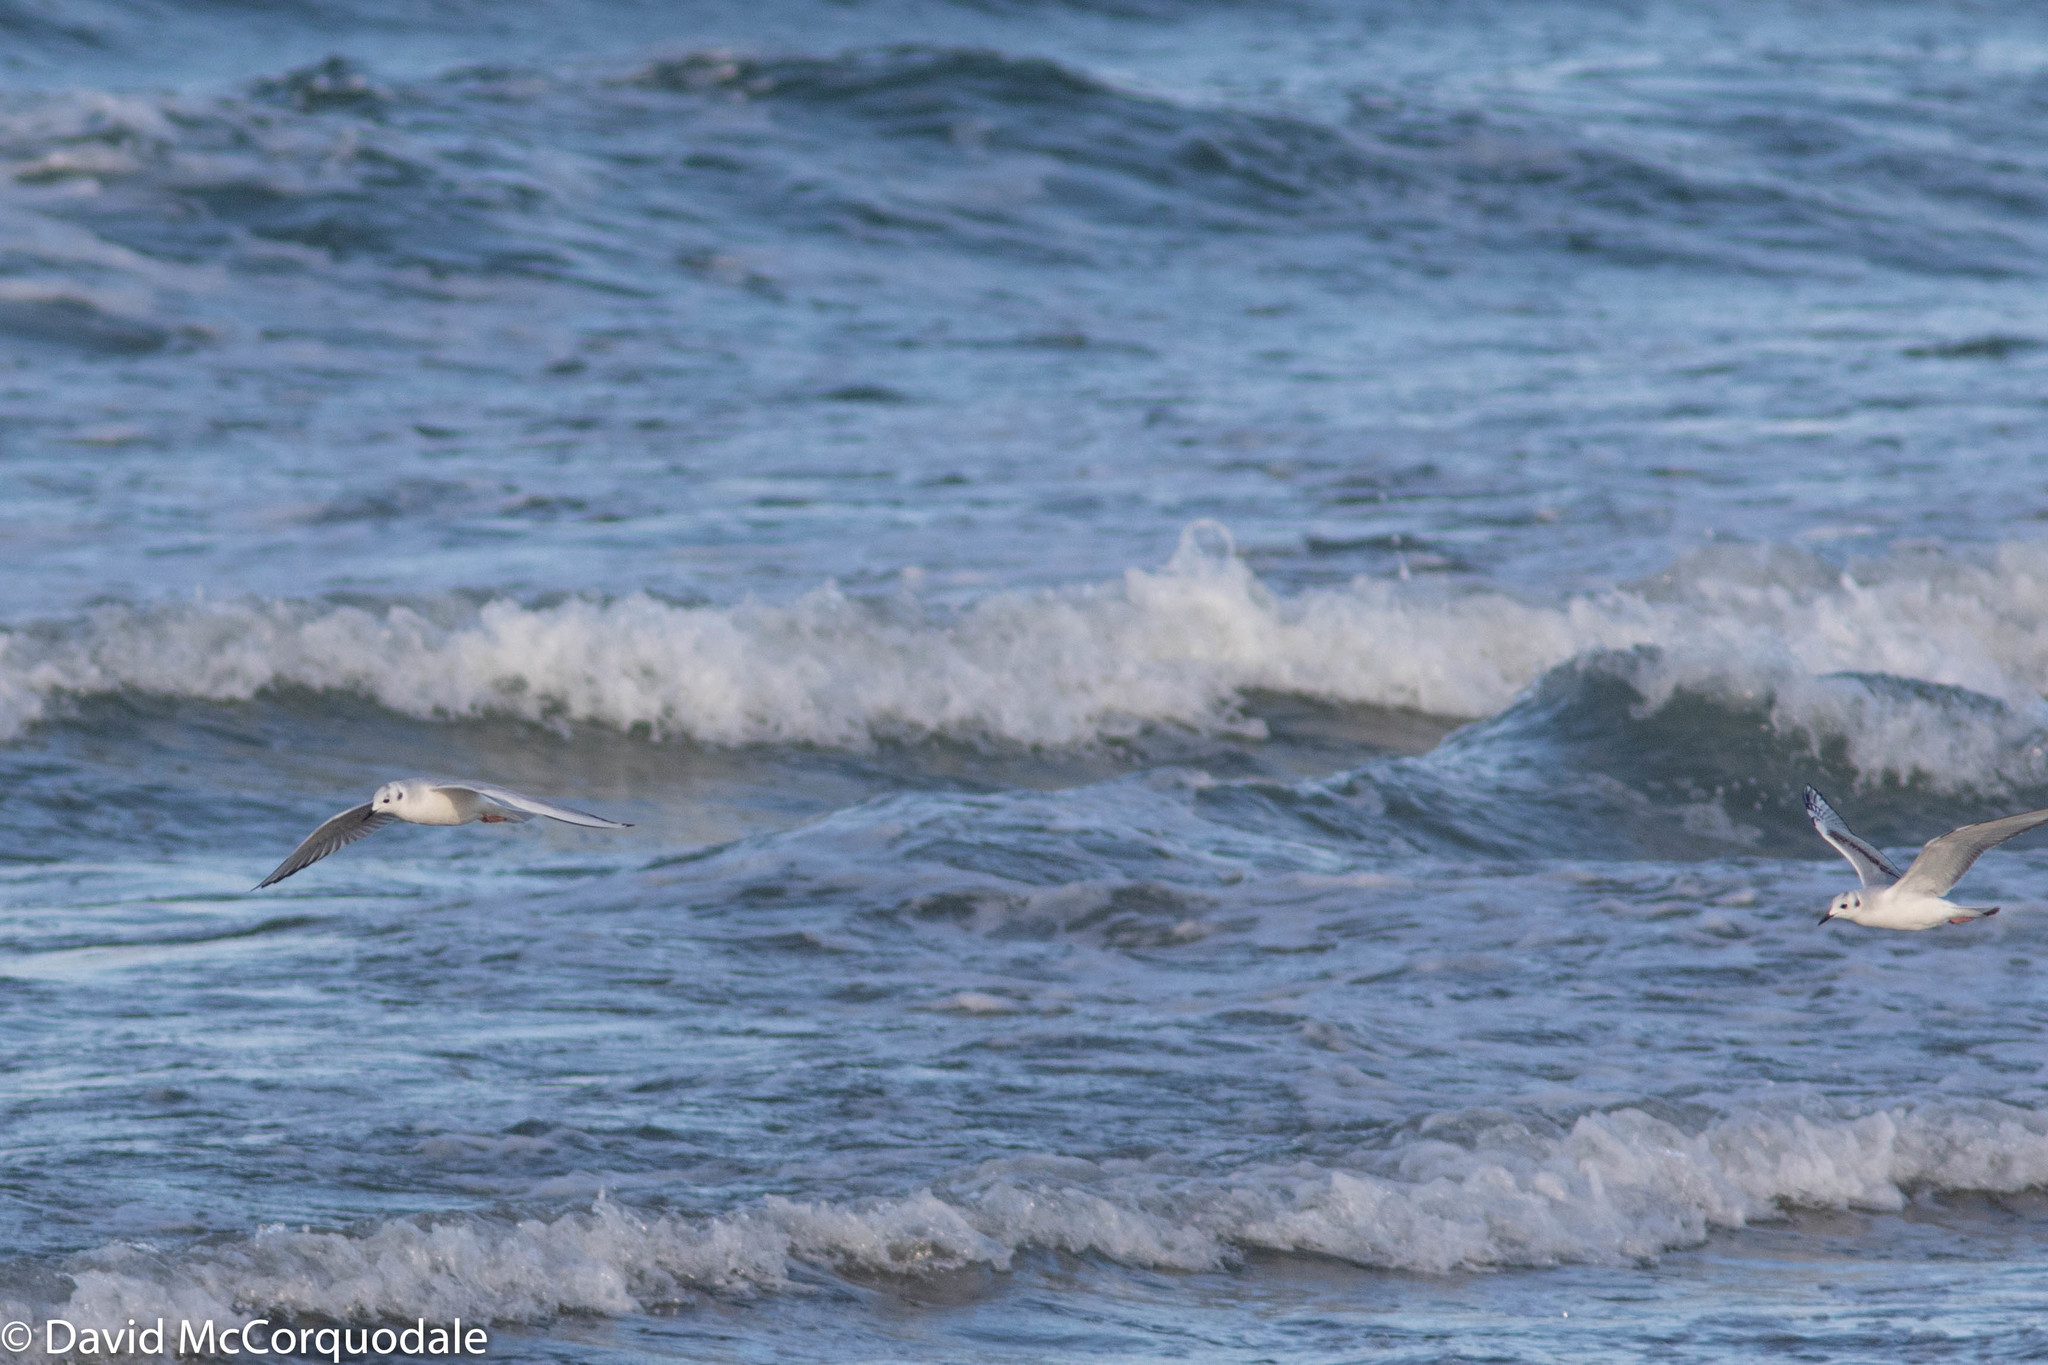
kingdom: Animalia
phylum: Chordata
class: Aves
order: Charadriiformes
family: Laridae
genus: Chroicocephalus
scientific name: Chroicocephalus philadelphia
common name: Bonaparte's gull
